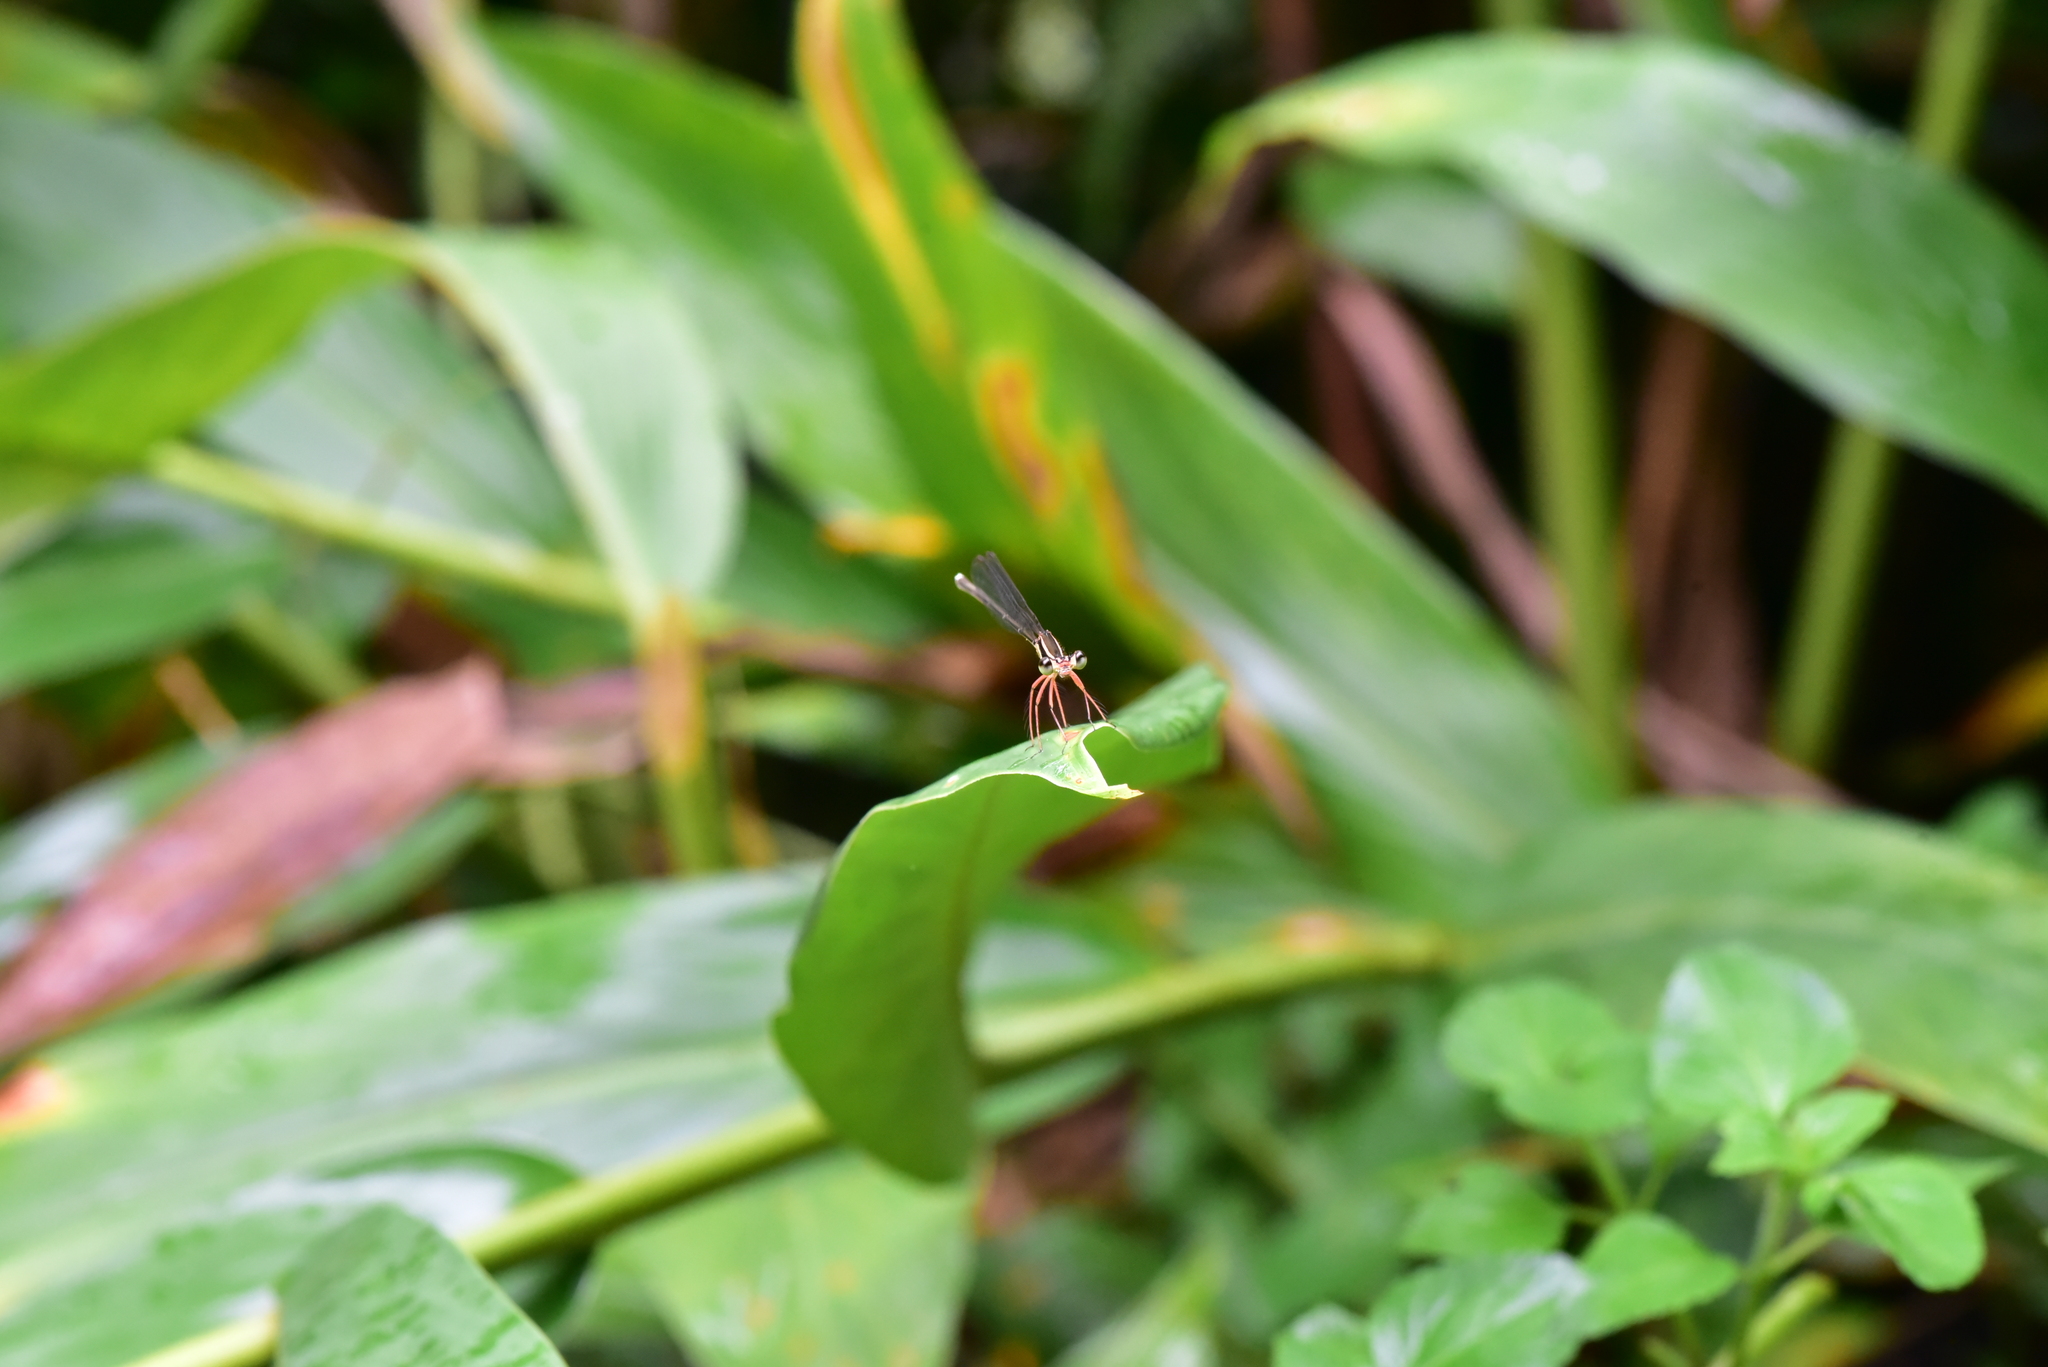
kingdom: Animalia
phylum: Arthropoda
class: Insecta
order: Odonata
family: Platycnemididae
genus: Pseudocopera
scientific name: Pseudocopera ciliata
